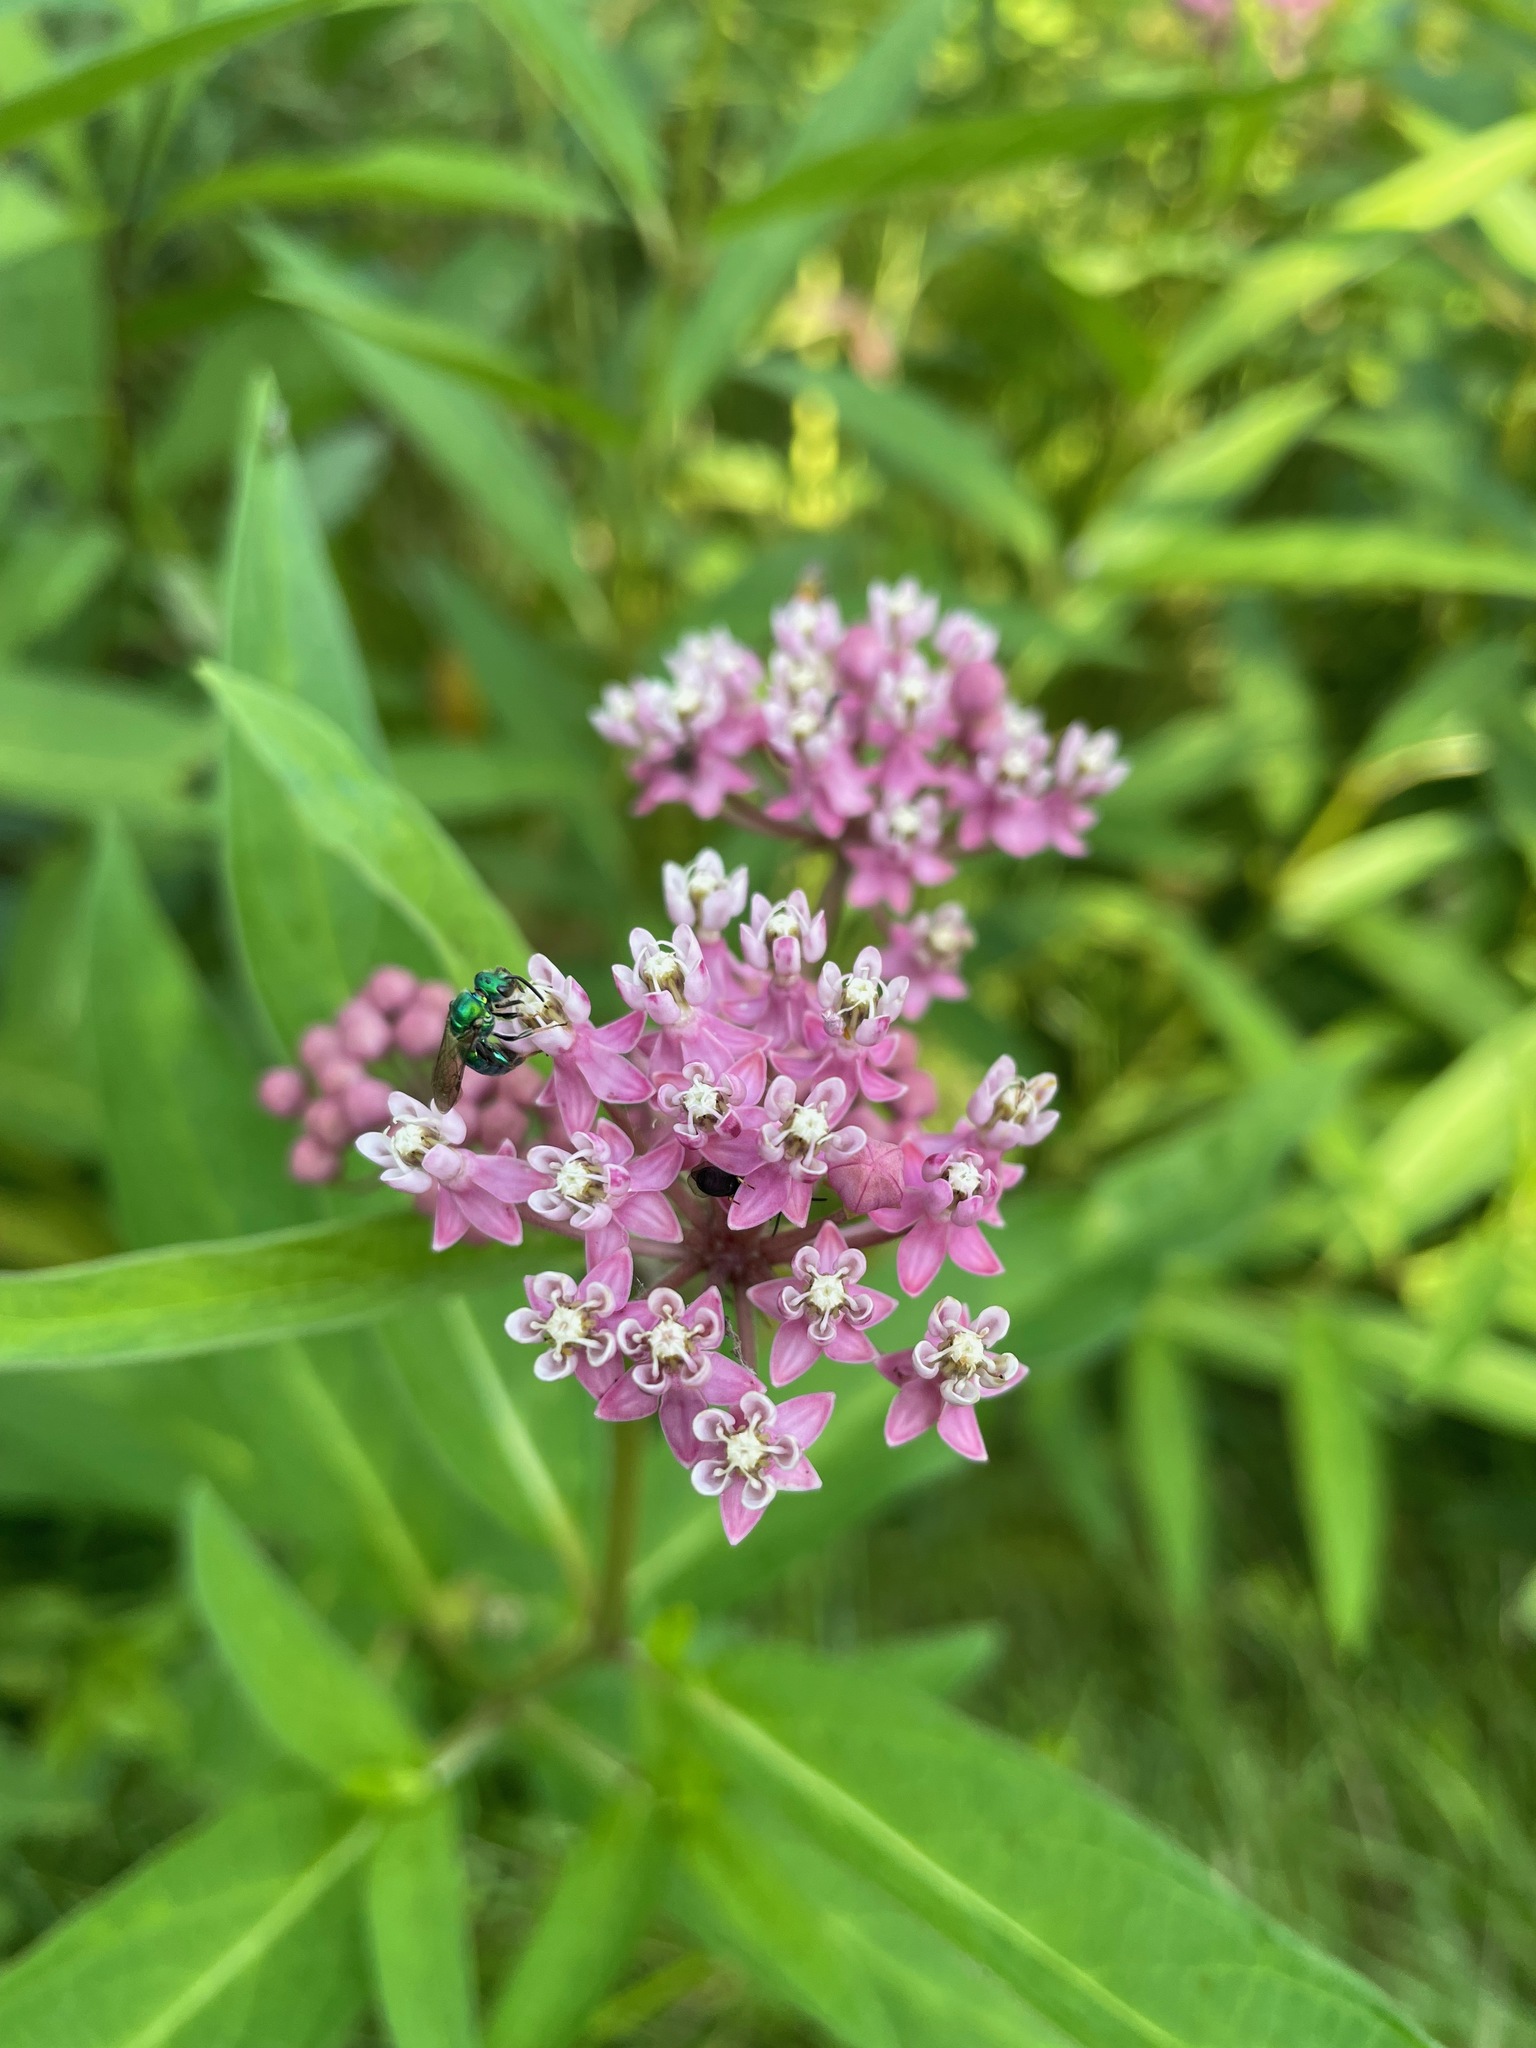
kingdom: Plantae
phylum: Tracheophyta
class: Magnoliopsida
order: Gentianales
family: Apocynaceae
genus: Asclepias
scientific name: Asclepias incarnata
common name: Swamp milkweed
